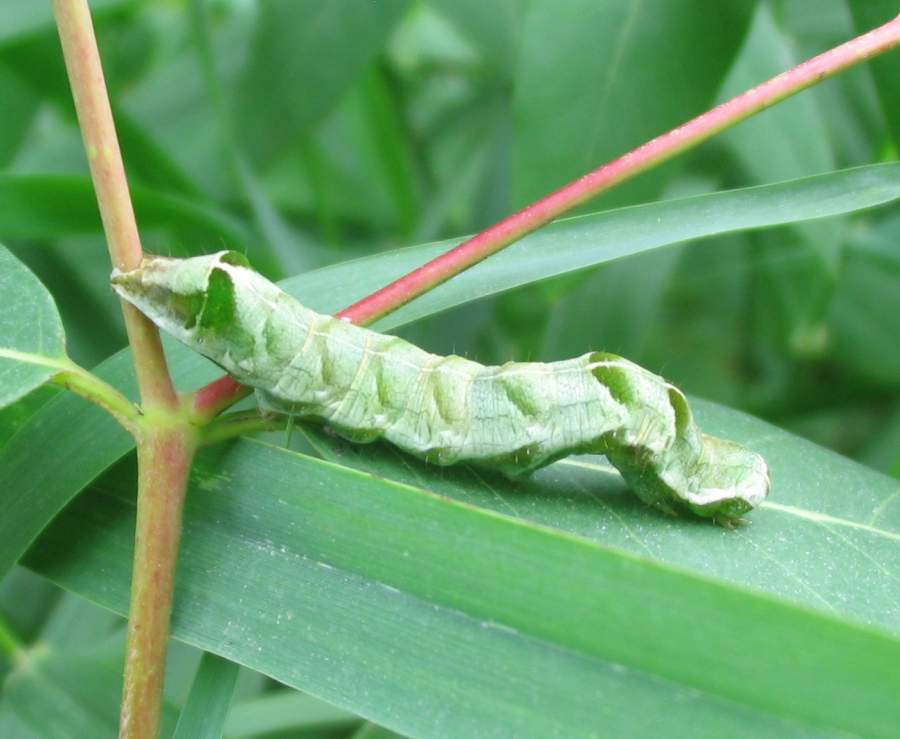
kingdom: Animalia
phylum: Arthropoda
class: Insecta
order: Lepidoptera
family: Noctuidae
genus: Melanchra
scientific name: Melanchra adjuncta
